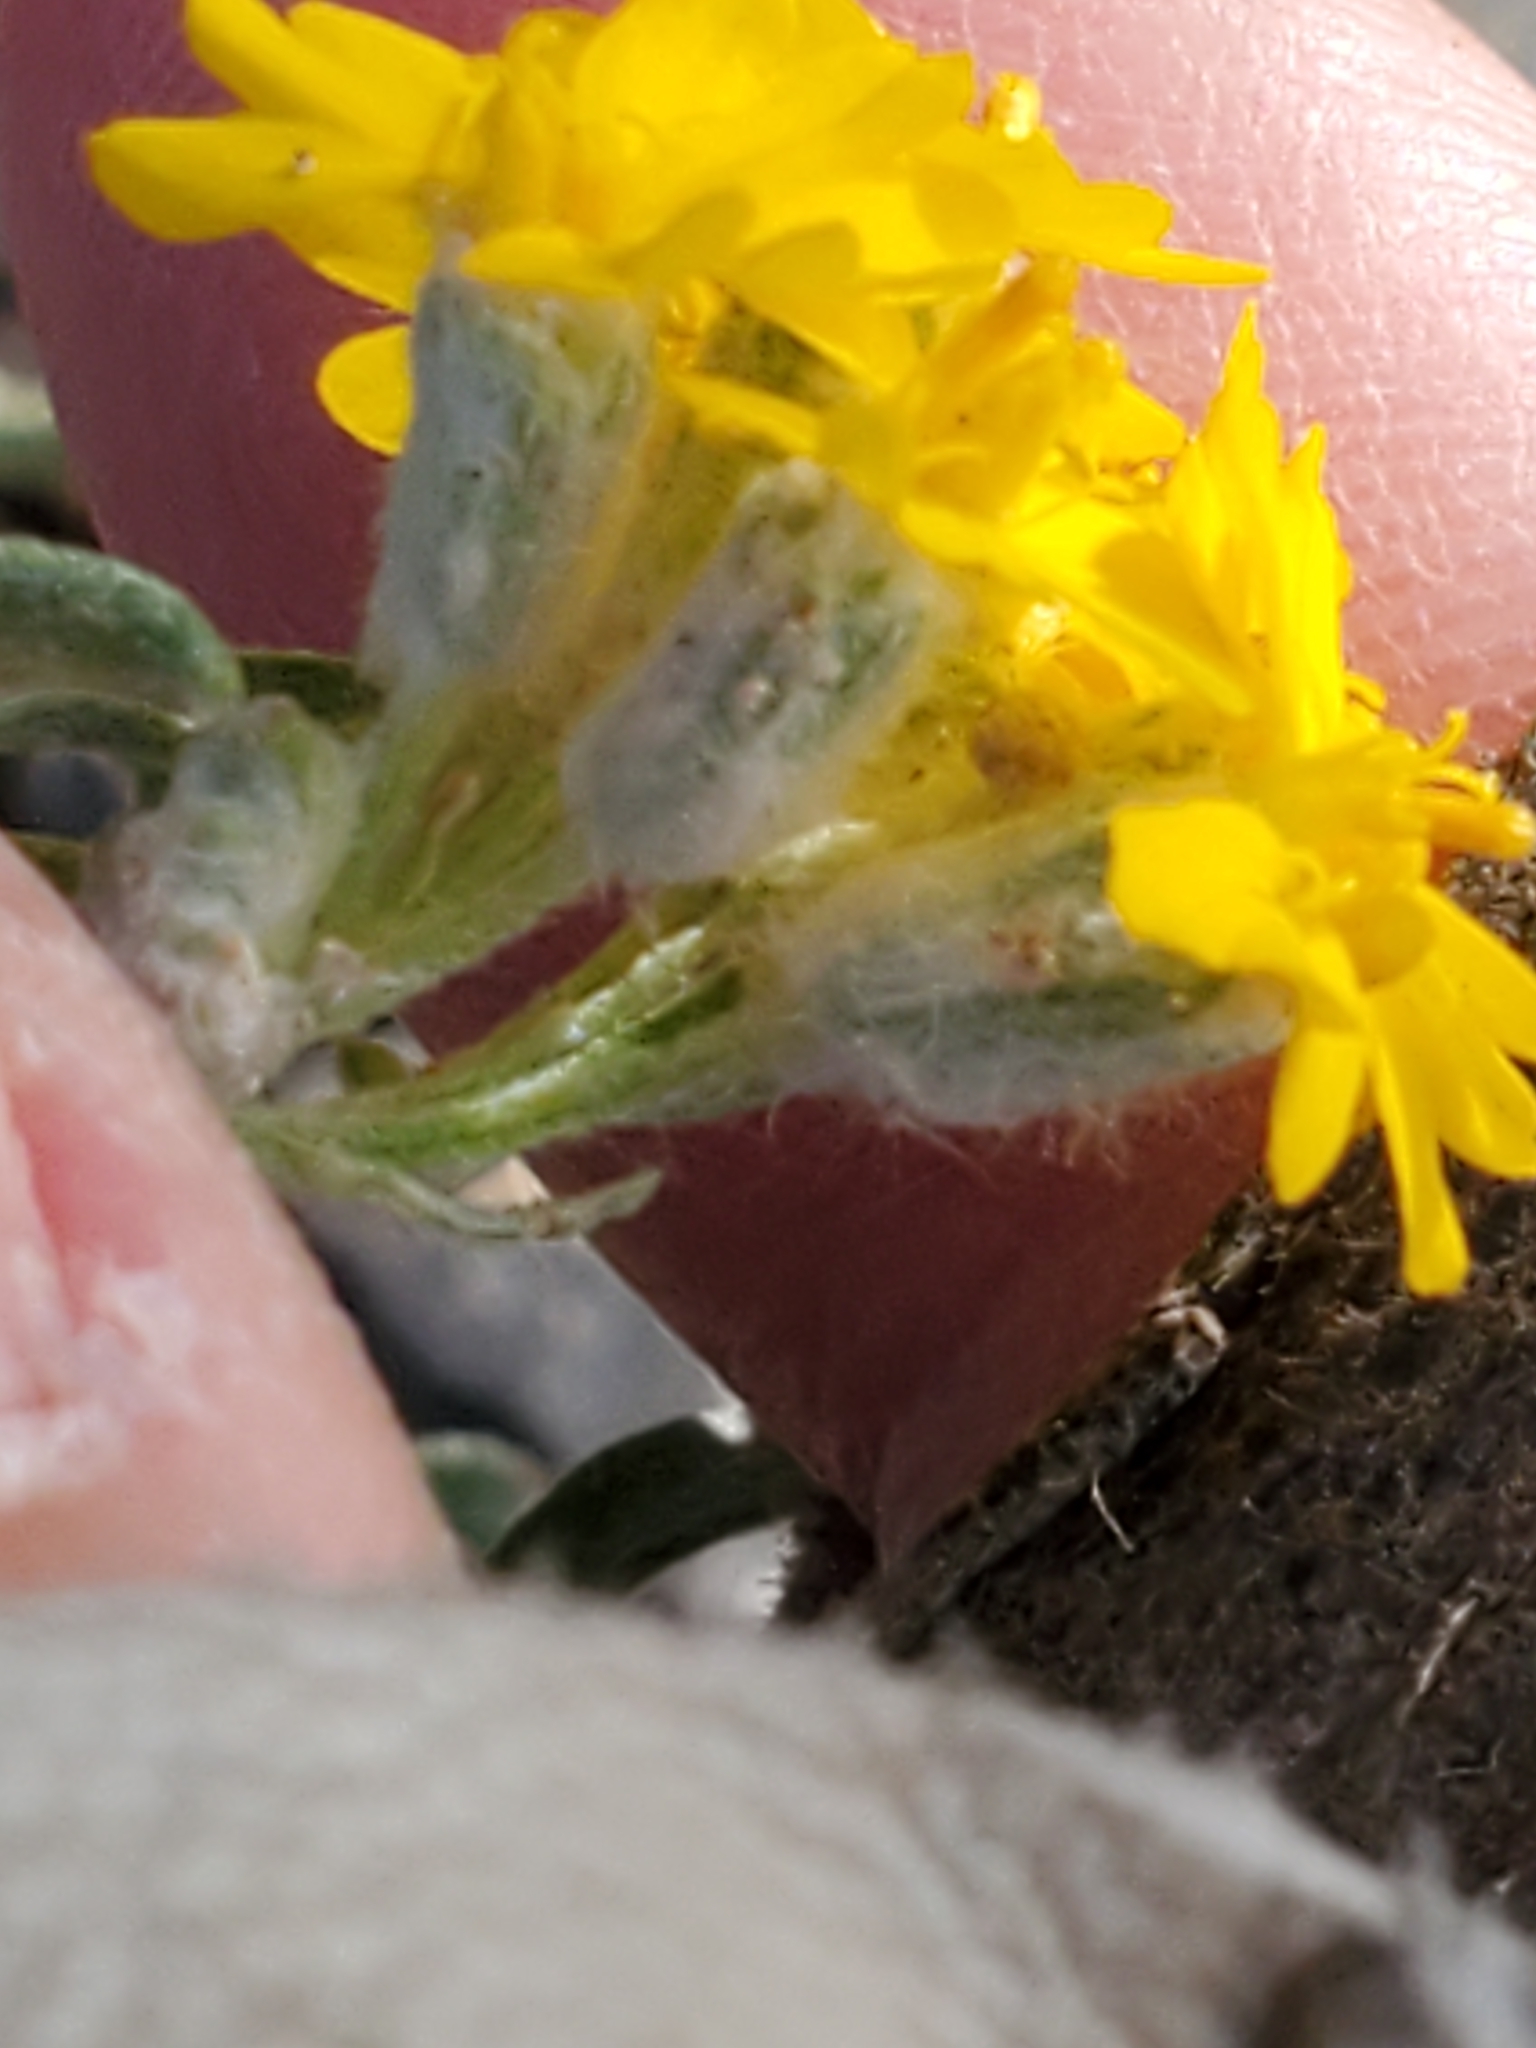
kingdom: Plantae
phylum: Tracheophyta
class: Magnoliopsida
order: Asterales
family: Asteraceae
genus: Psilostrophe
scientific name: Psilostrophe tagetina
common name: Marigold paper-flower
